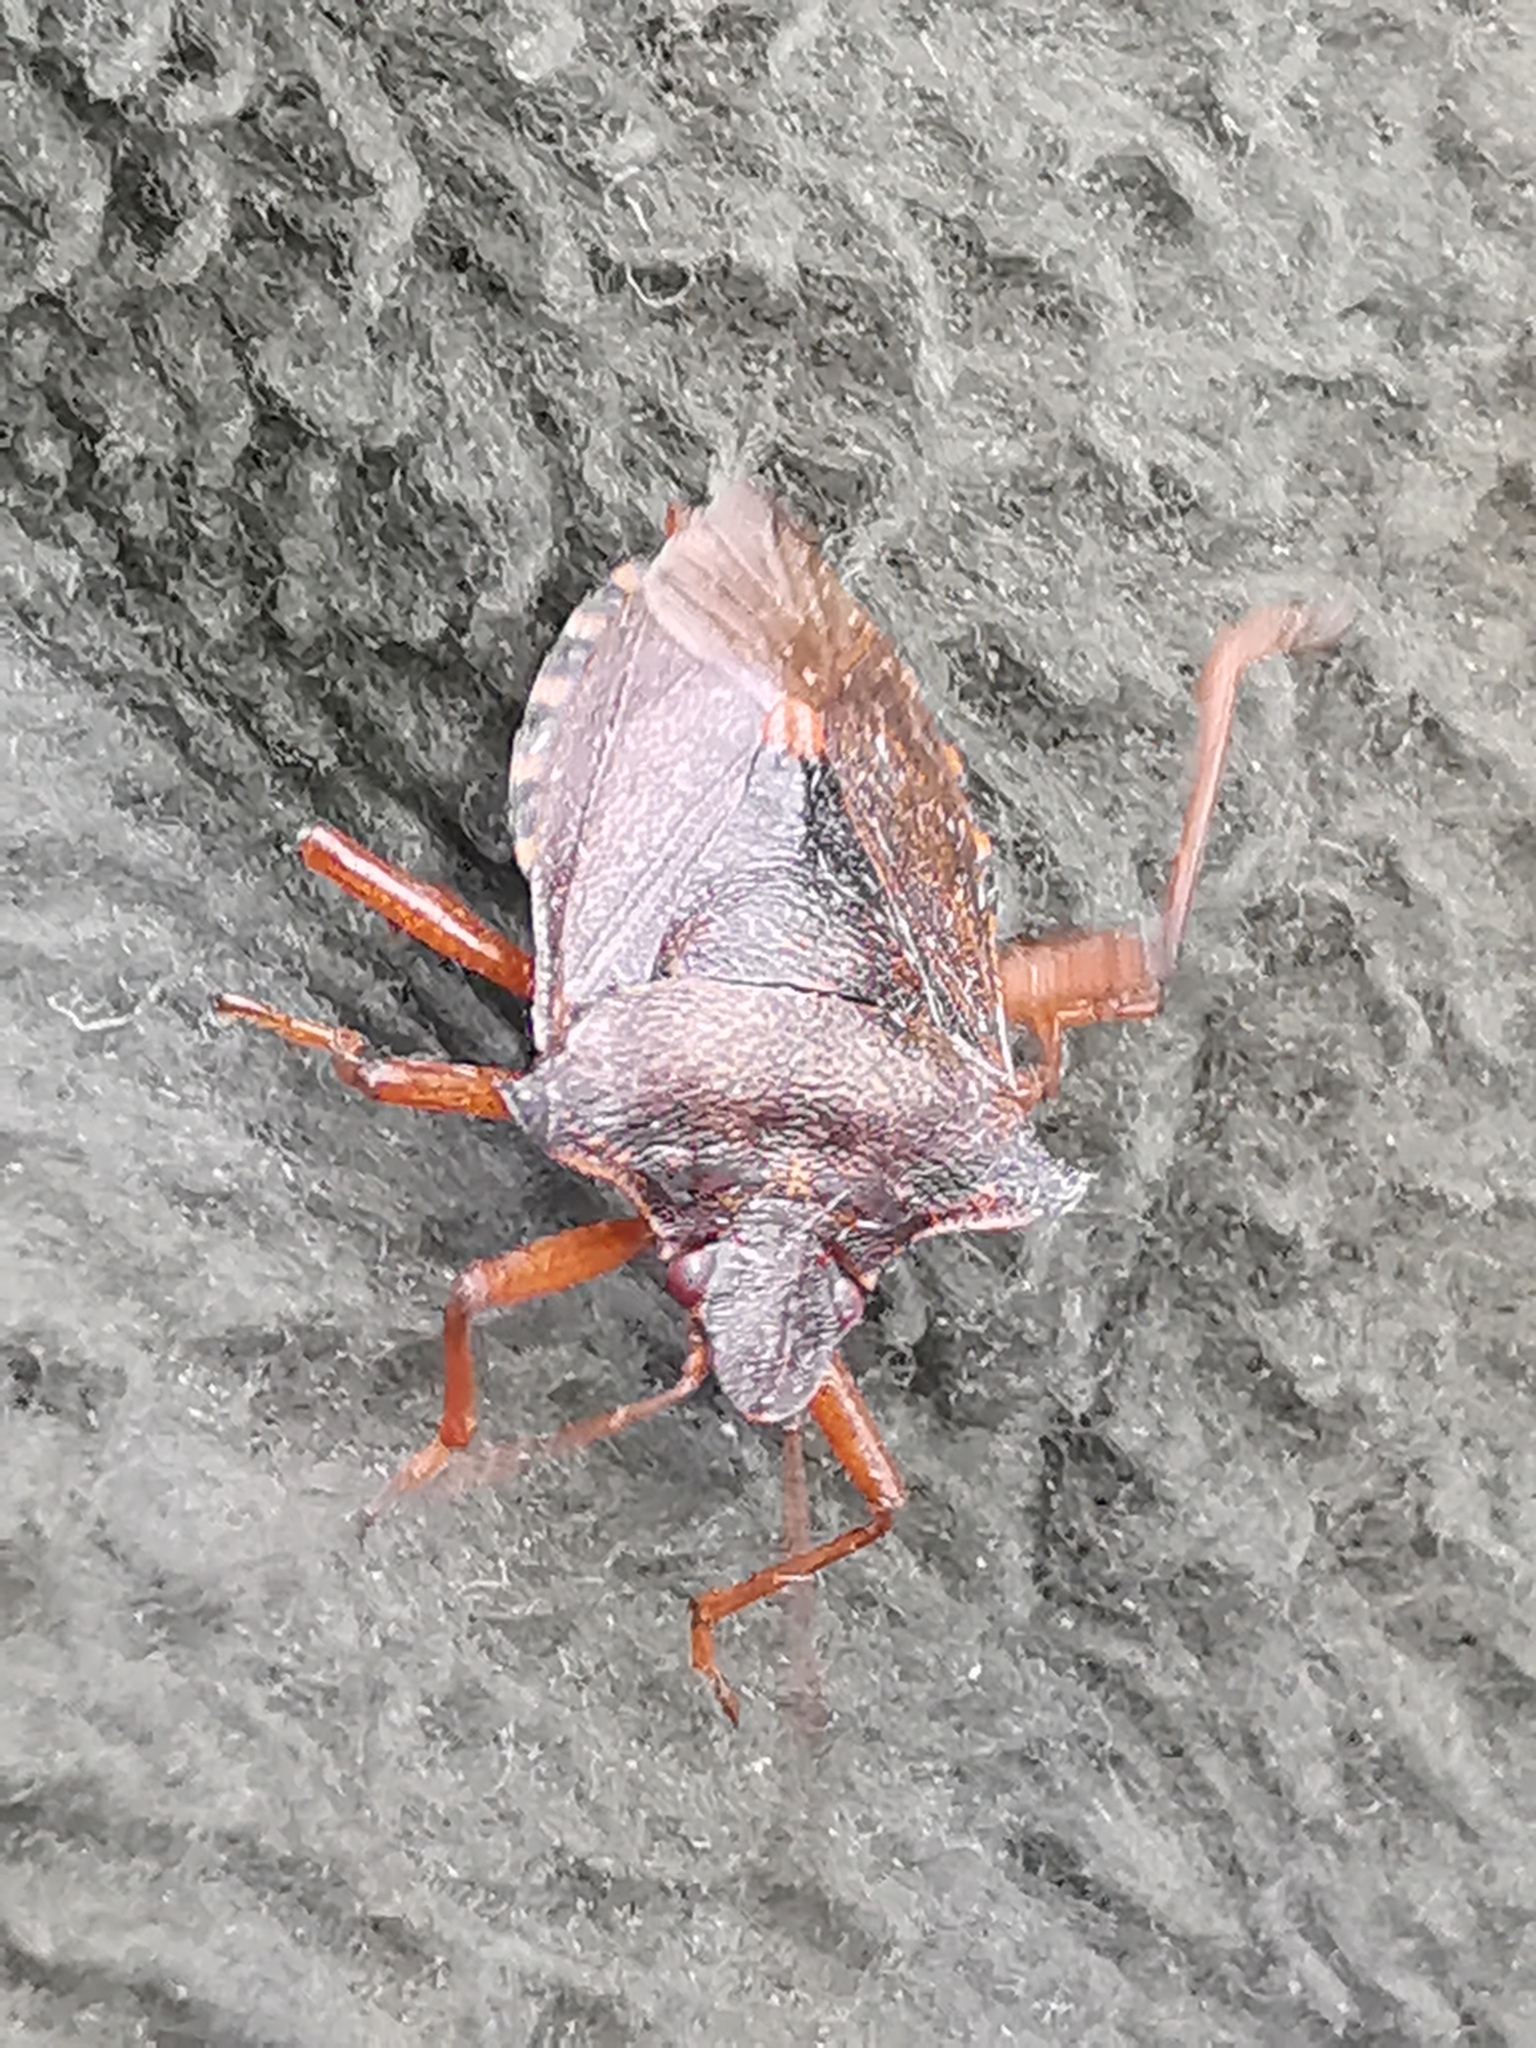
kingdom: Animalia
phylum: Arthropoda
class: Insecta
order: Hemiptera
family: Pentatomidae
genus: Pentatoma
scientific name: Pentatoma rufipes
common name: Forest bug
